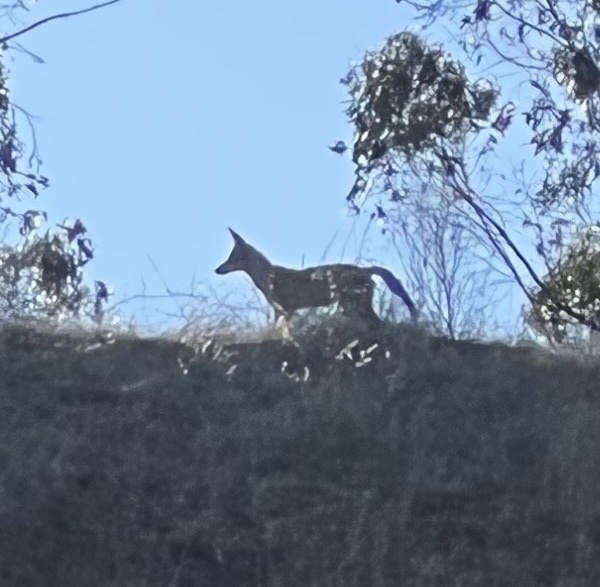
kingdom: Animalia
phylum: Chordata
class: Mammalia
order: Carnivora
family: Canidae
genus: Canis
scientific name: Canis latrans
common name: Coyote
